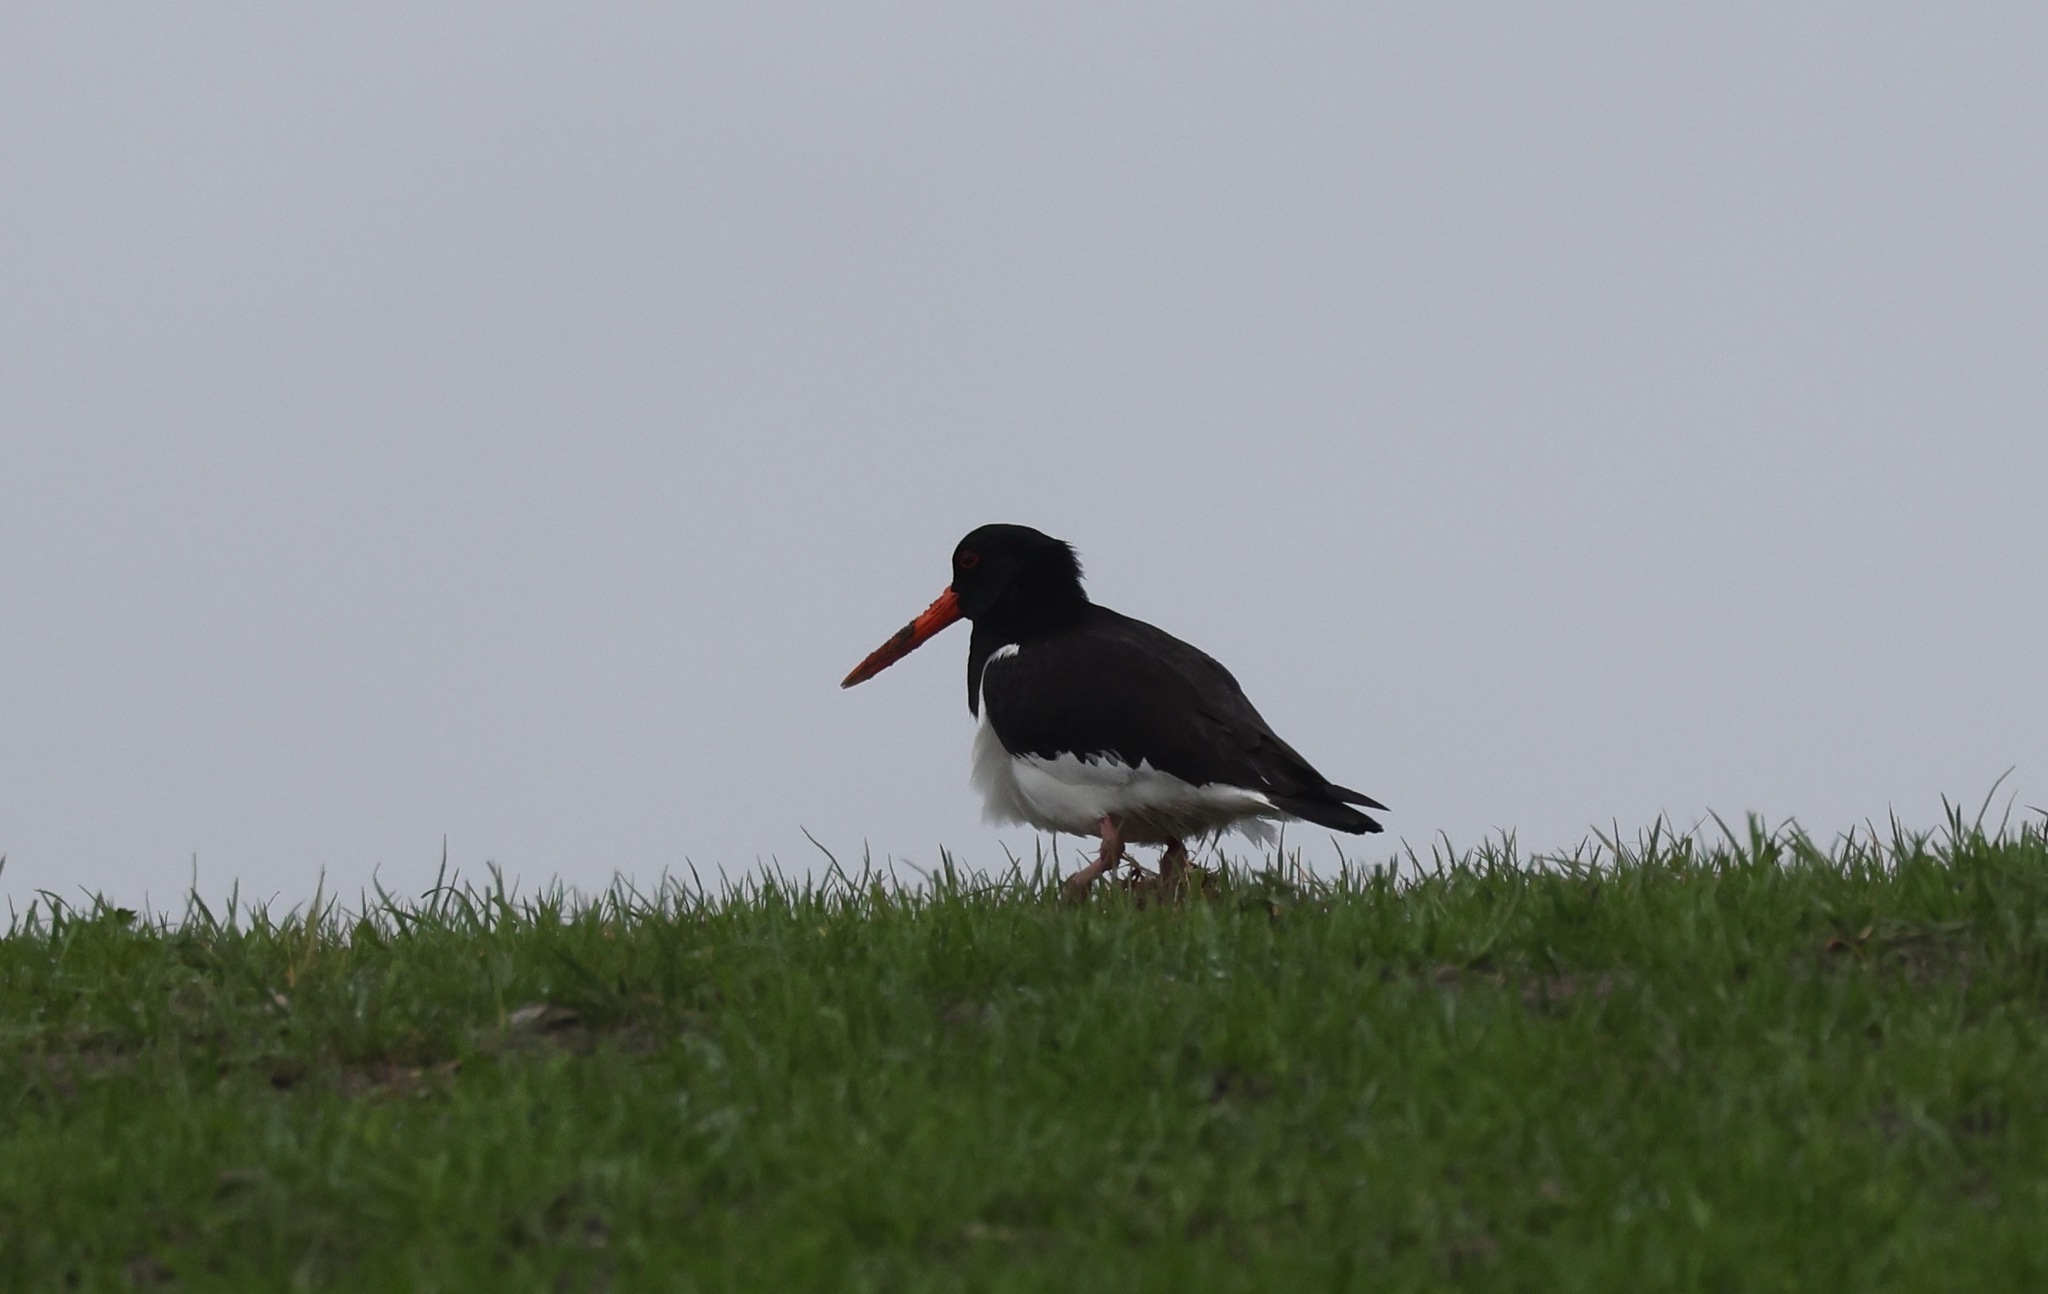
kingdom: Animalia
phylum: Chordata
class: Aves
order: Charadriiformes
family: Haematopodidae
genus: Haematopus
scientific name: Haematopus ostralegus
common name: Eurasian oystercatcher
